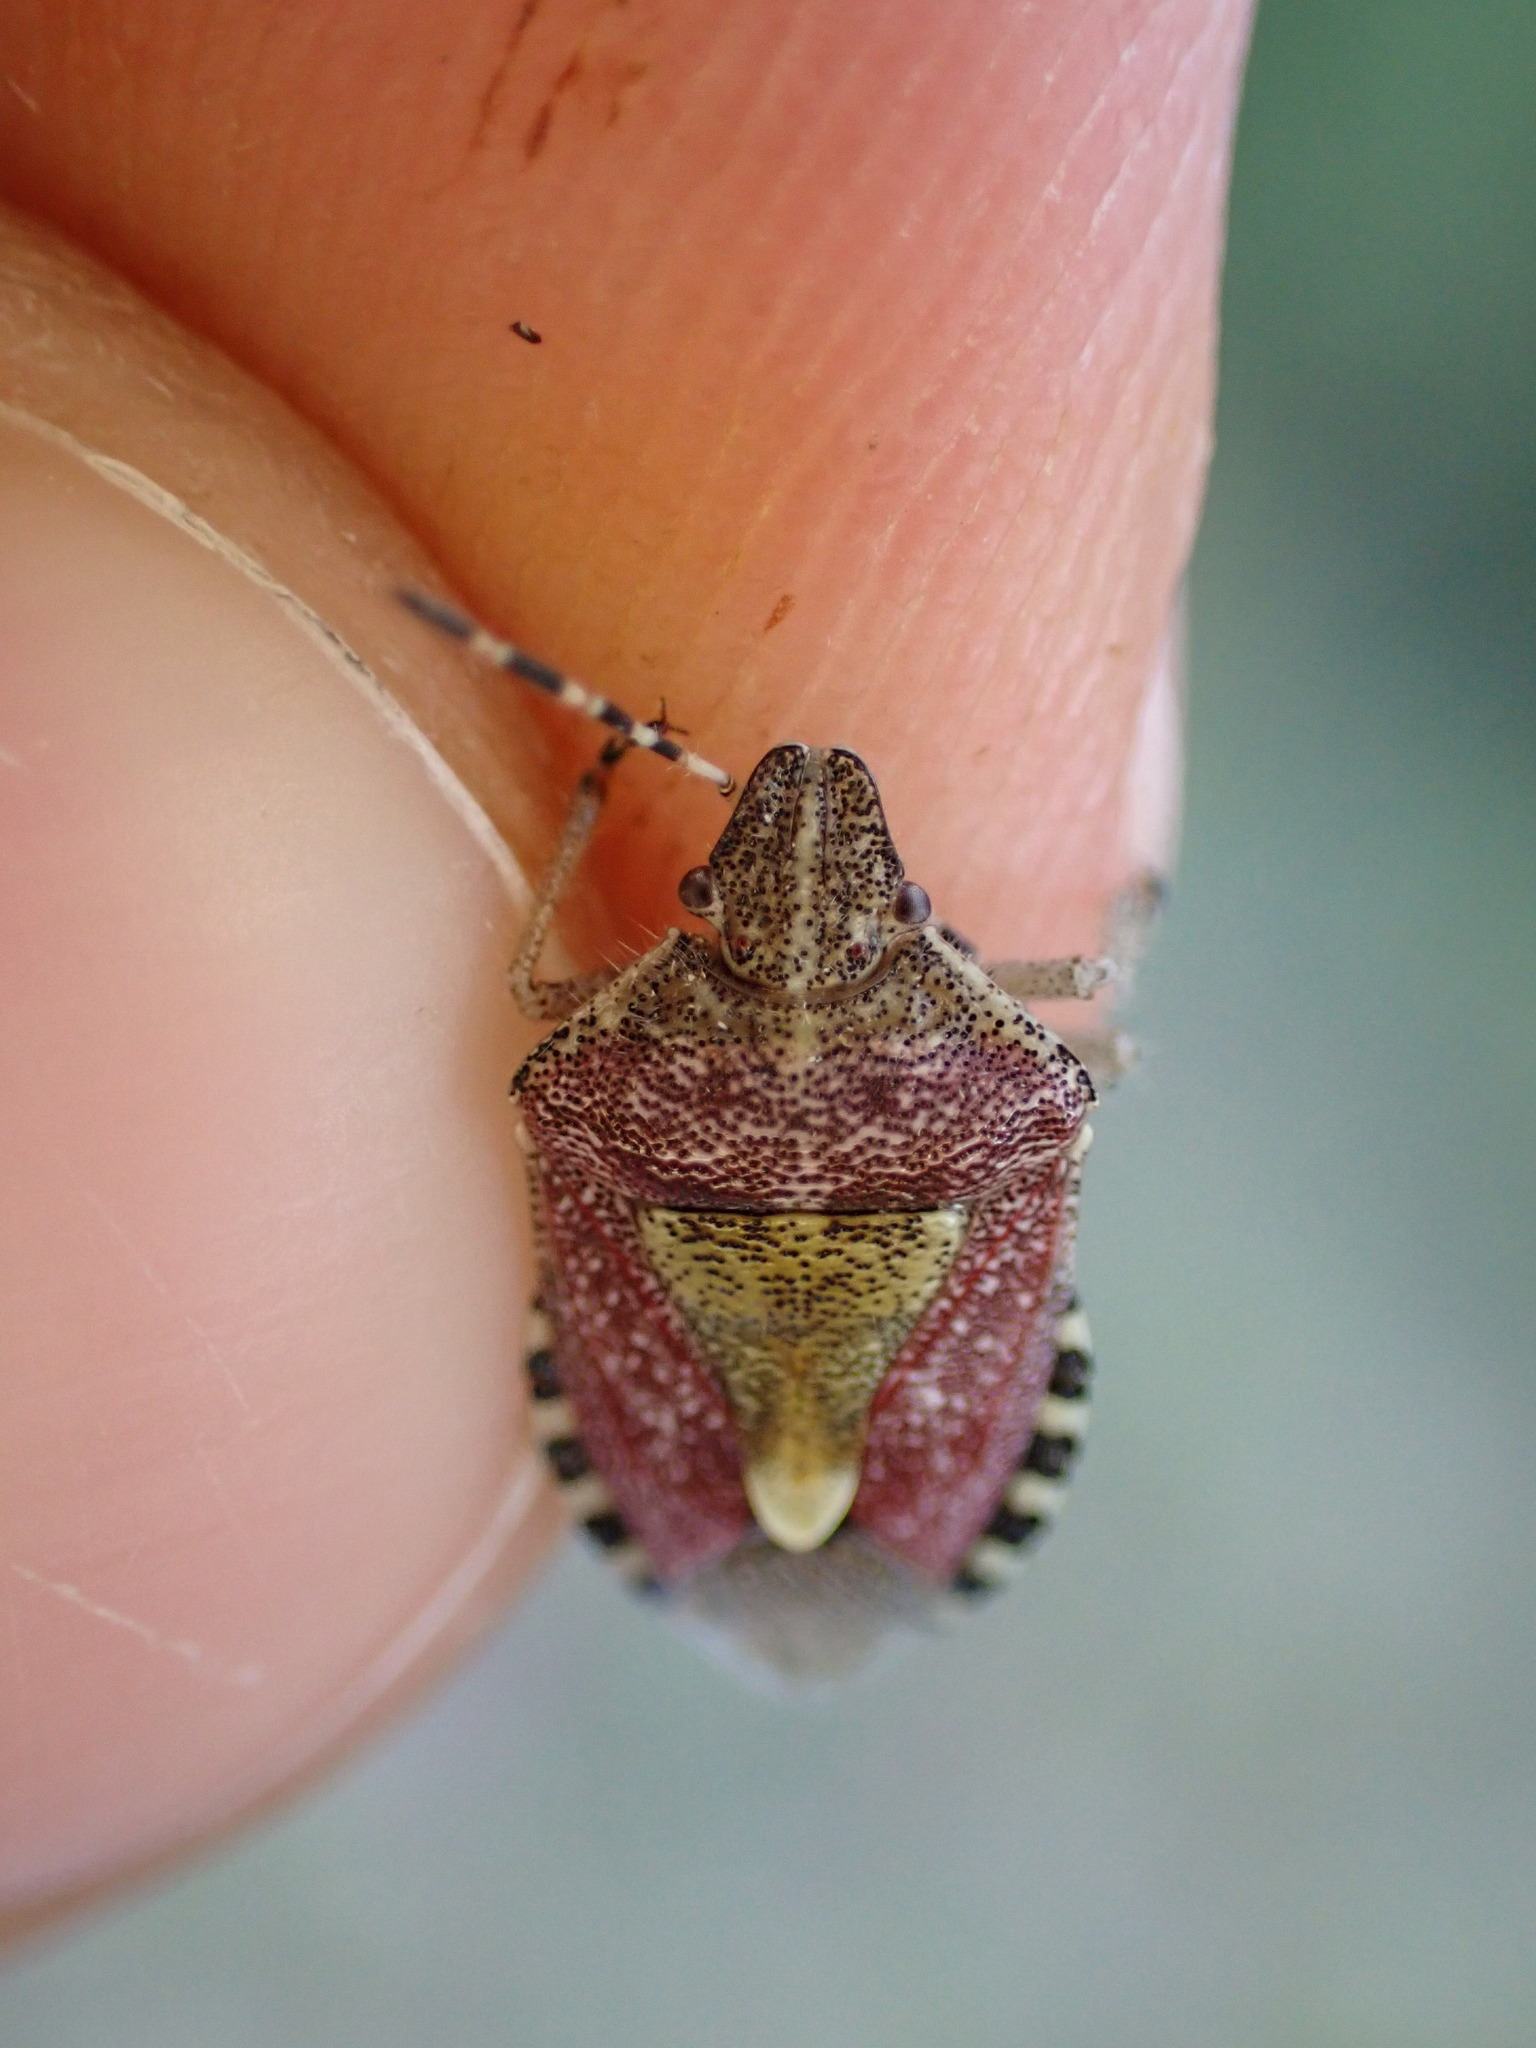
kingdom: Animalia
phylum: Arthropoda
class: Insecta
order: Hemiptera
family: Pentatomidae
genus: Dolycoris
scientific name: Dolycoris baccarum
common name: Sloe bug
